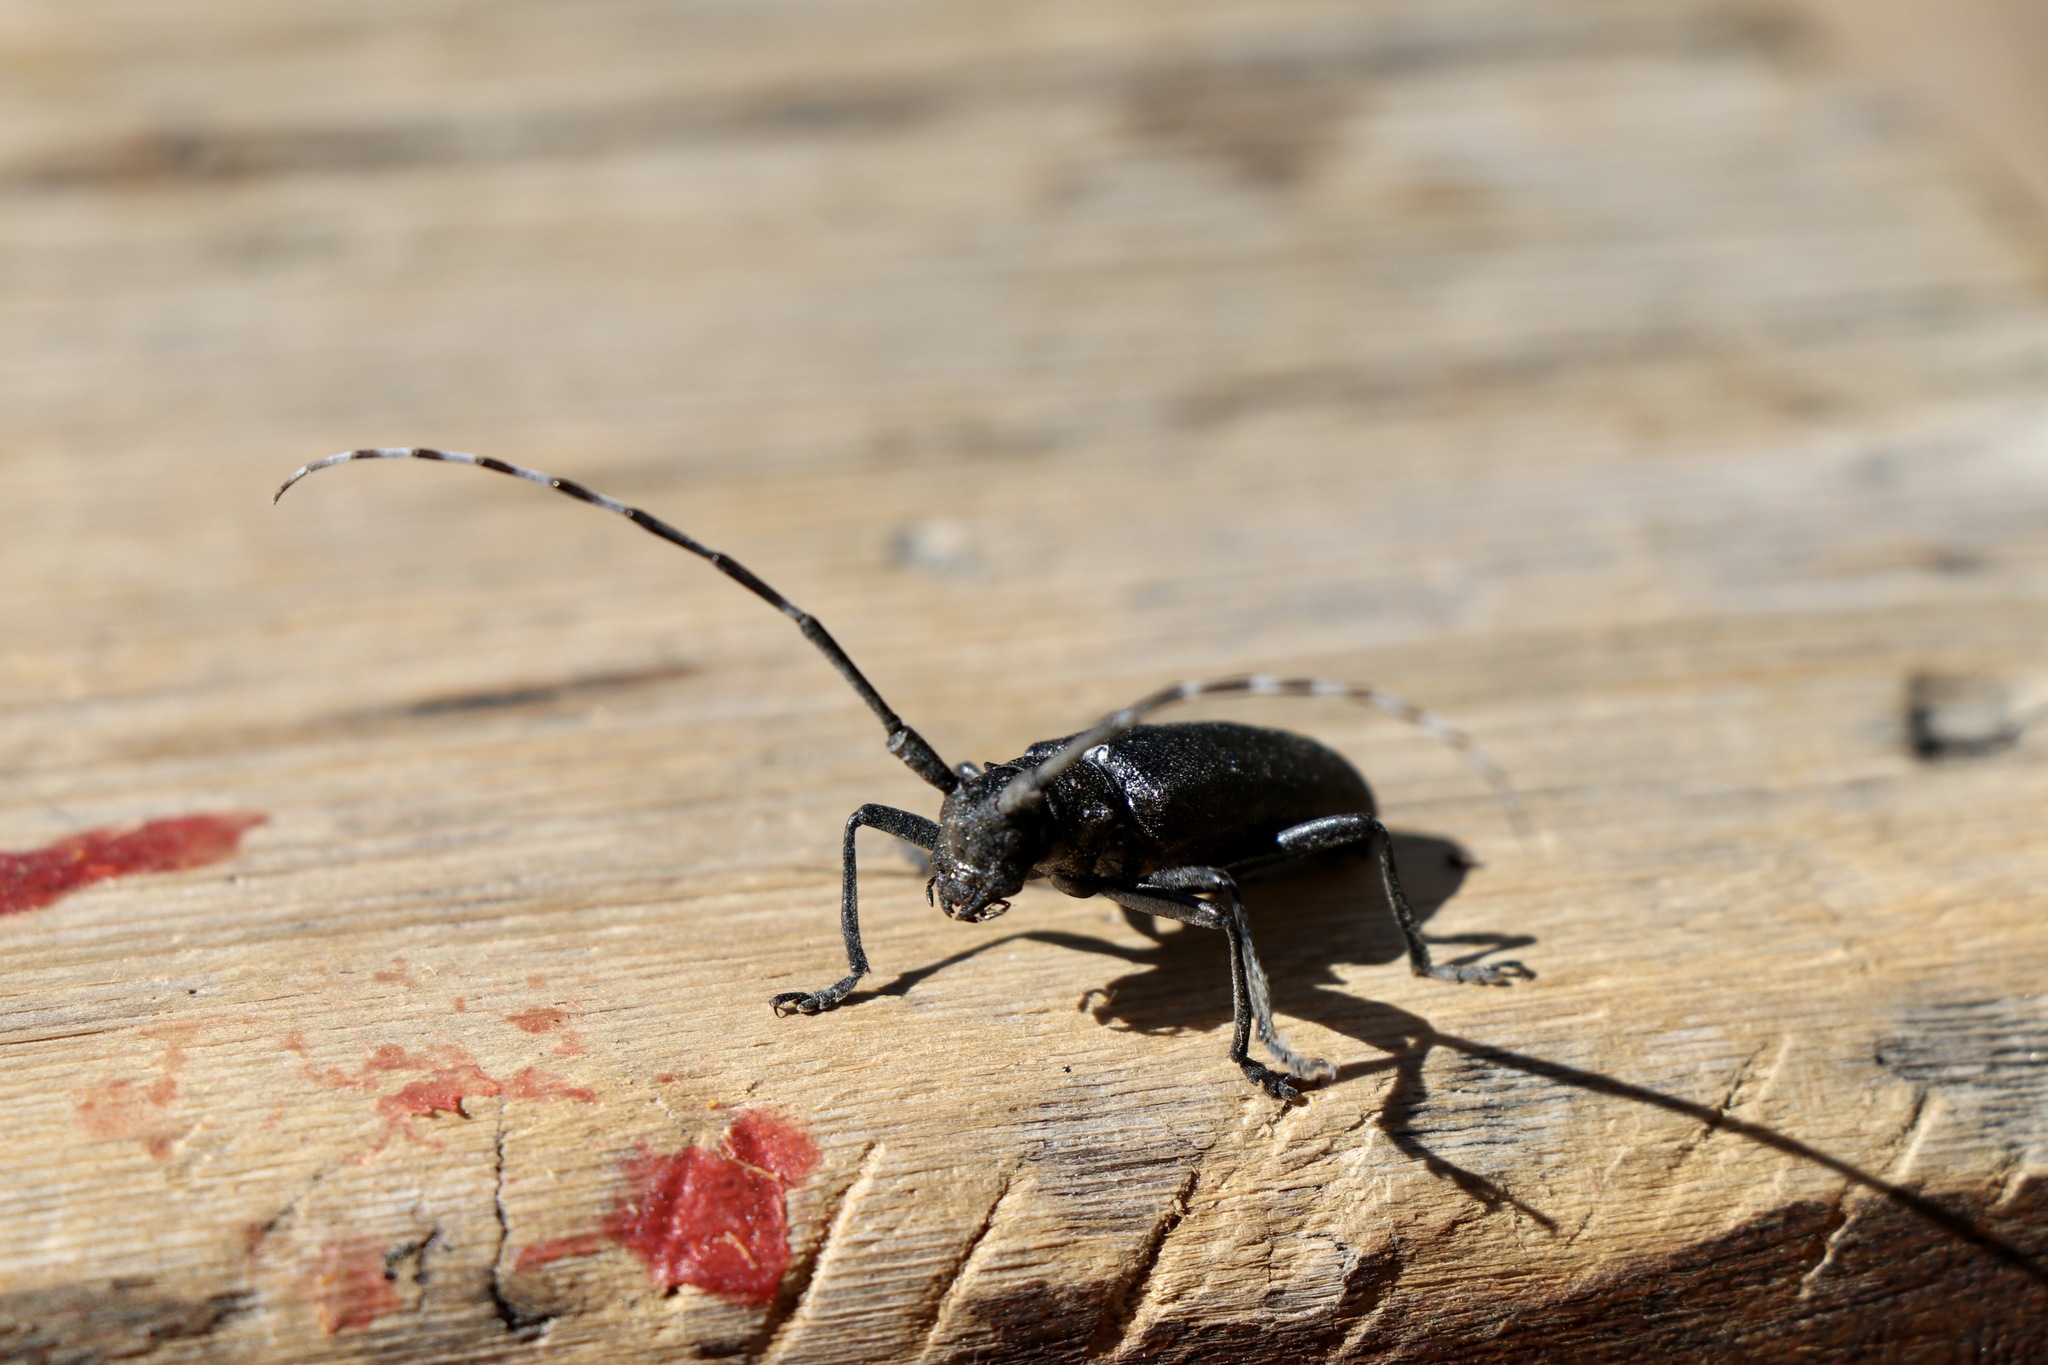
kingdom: Animalia
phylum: Arthropoda
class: Insecta
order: Coleoptera
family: Cerambycidae
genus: Monochamus
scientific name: Monochamus scutellatus
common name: White-spotted sawyer beetle
